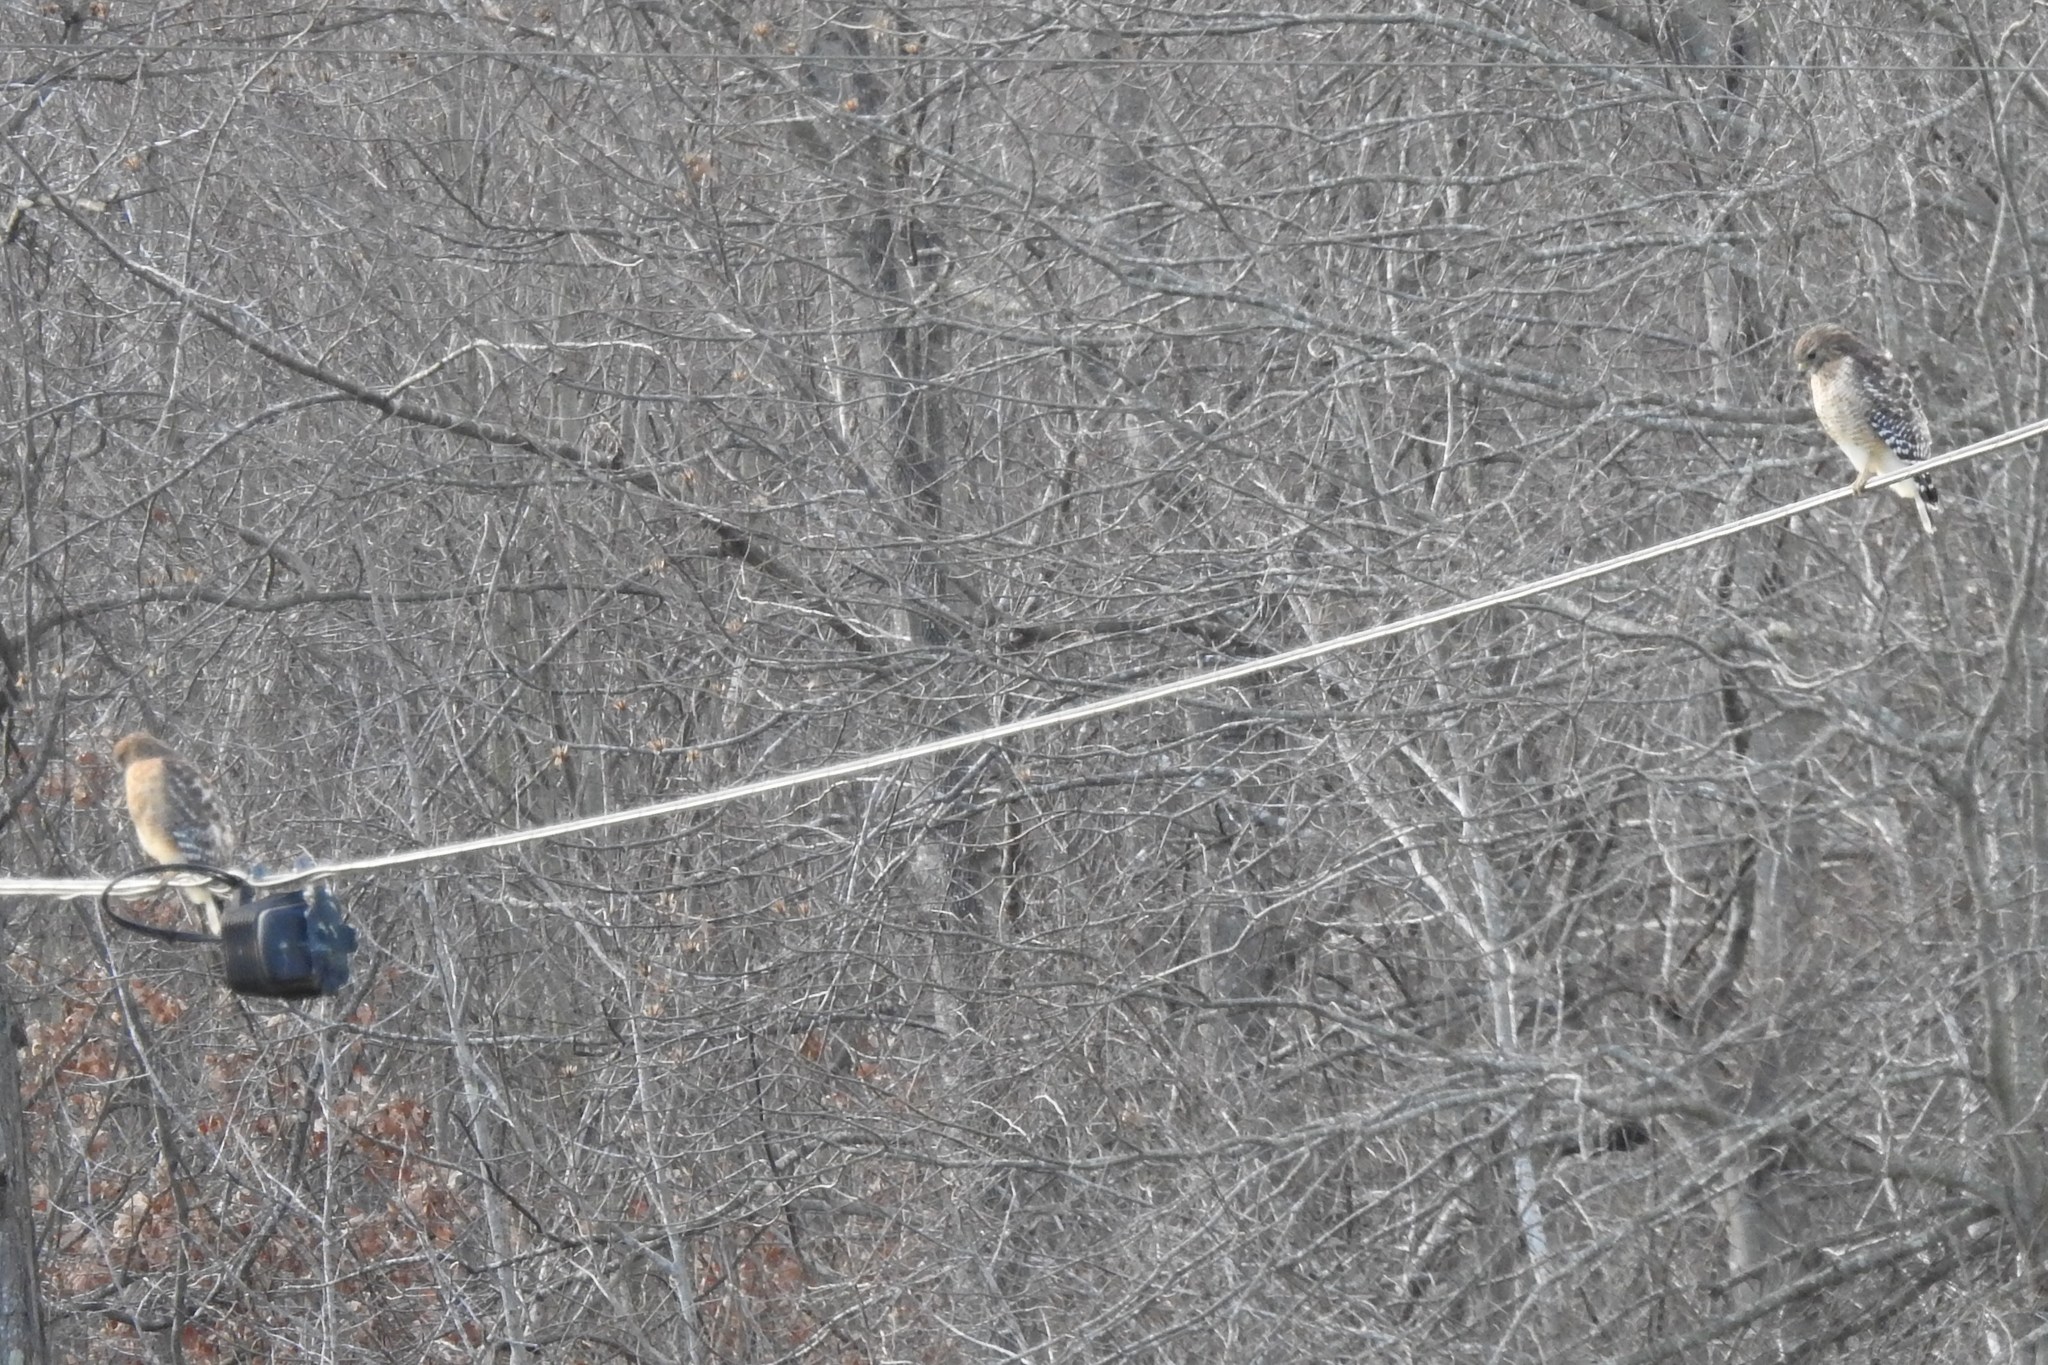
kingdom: Animalia
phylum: Chordata
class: Aves
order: Accipitriformes
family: Accipitridae
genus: Buteo
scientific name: Buteo lineatus
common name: Red-shouldered hawk
